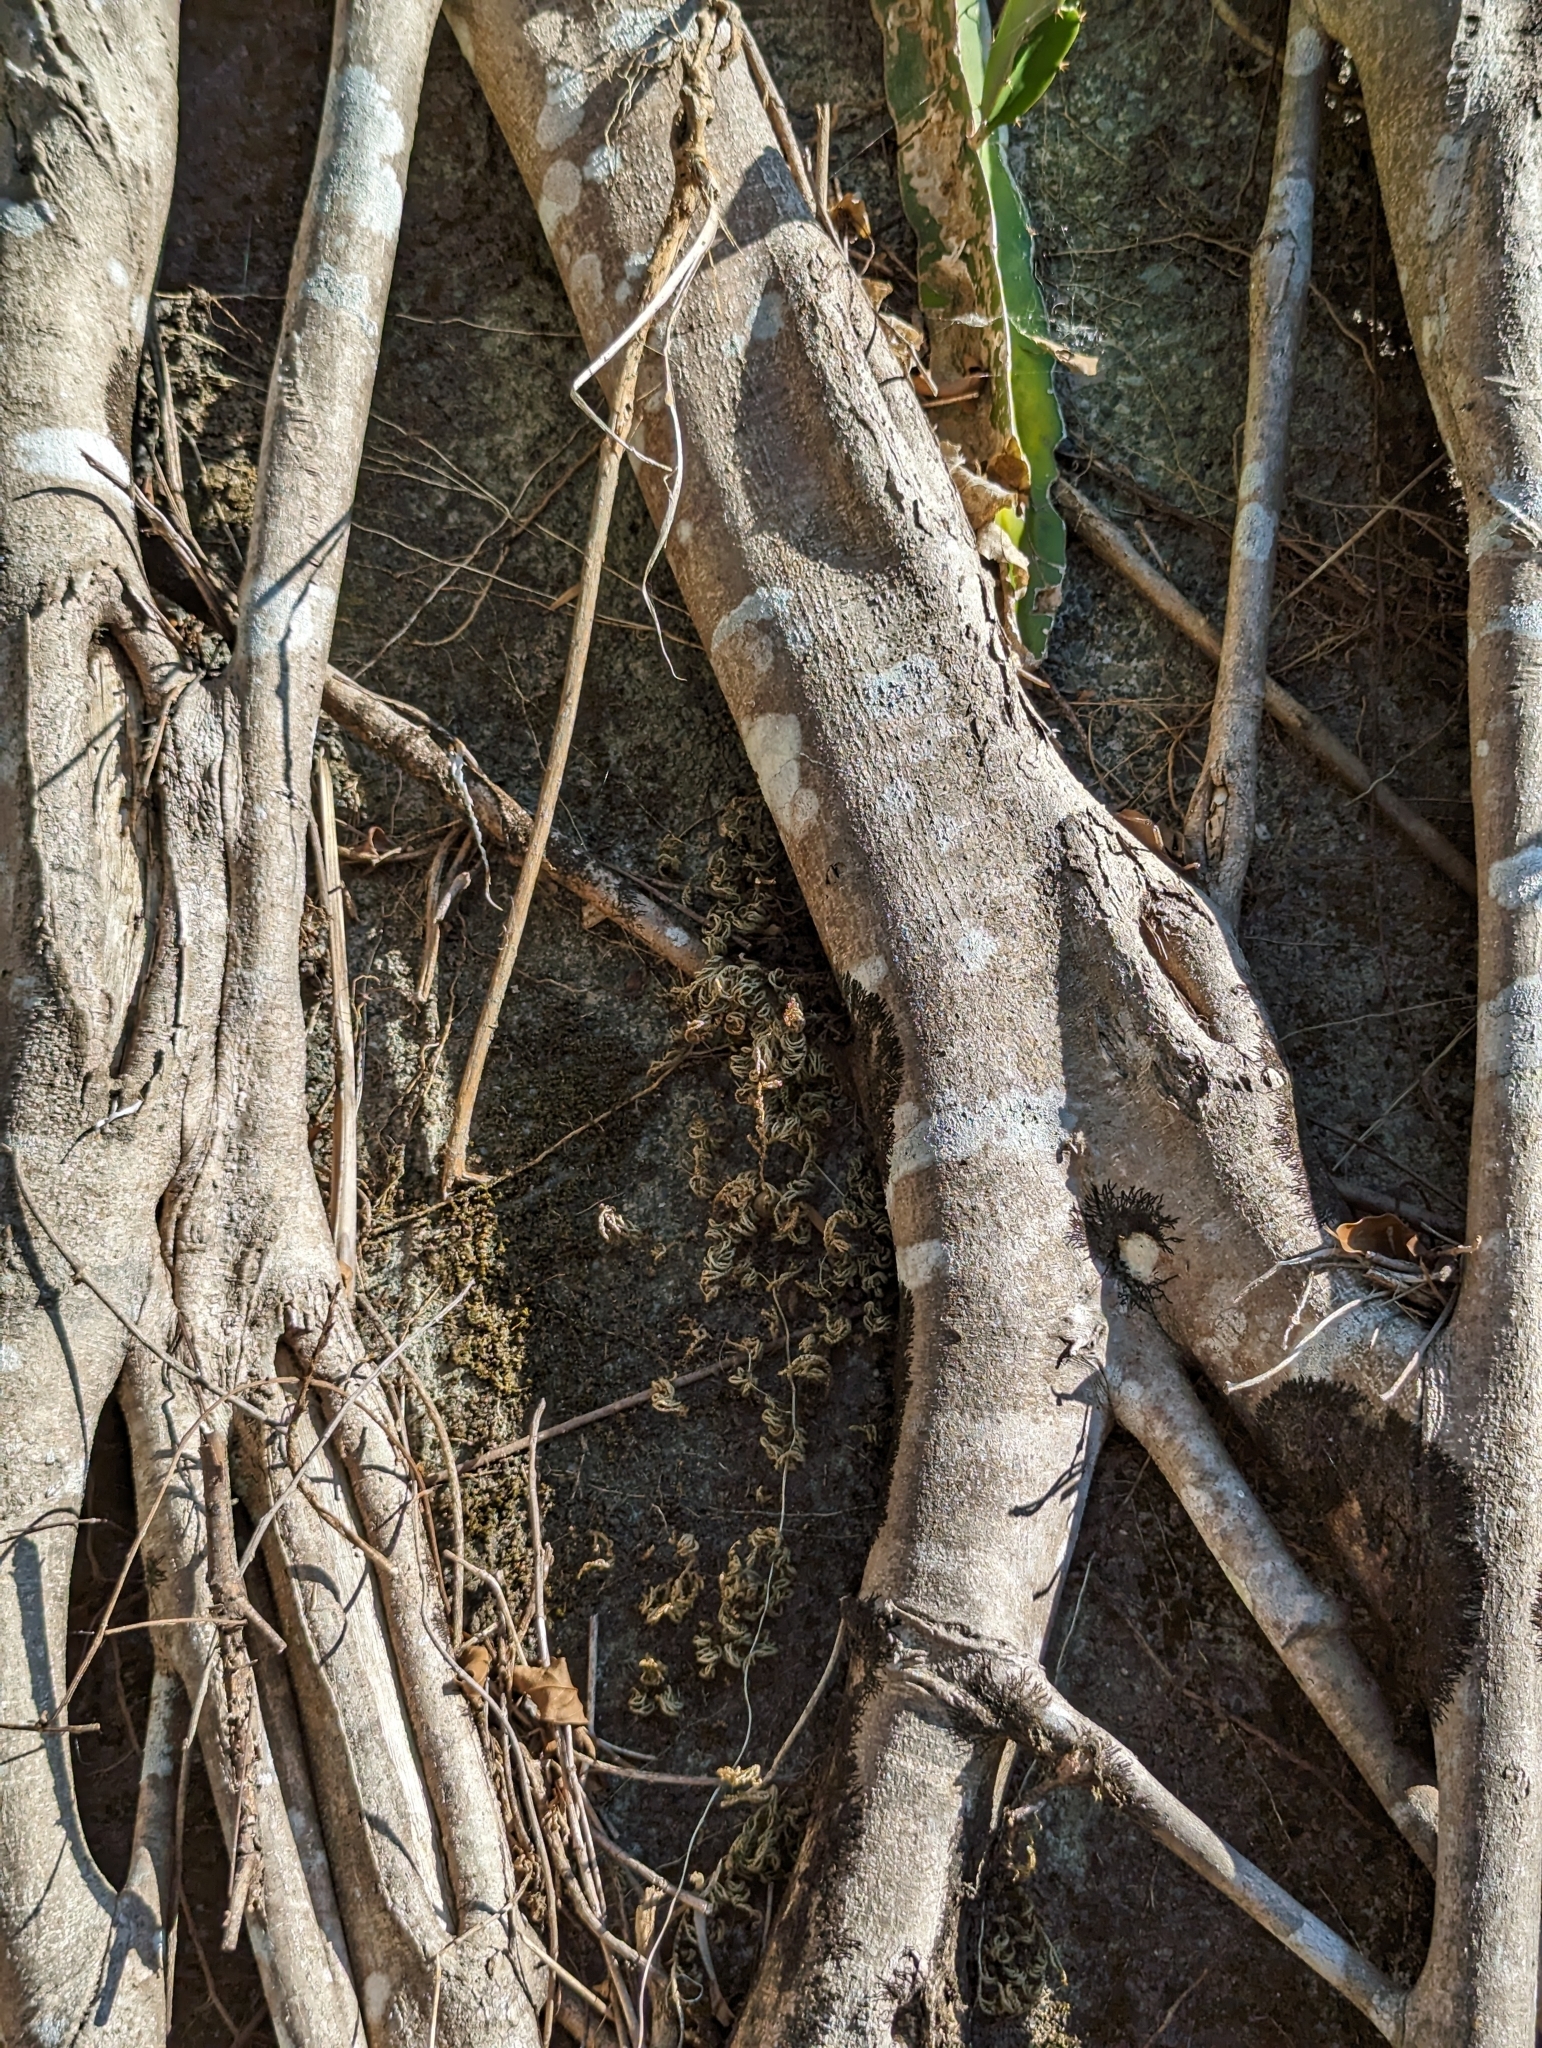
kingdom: Plantae
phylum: Tracheophyta
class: Magnoliopsida
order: Rosales
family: Moraceae
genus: Ficus
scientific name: Ficus microcarpa
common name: Chinese banyan
